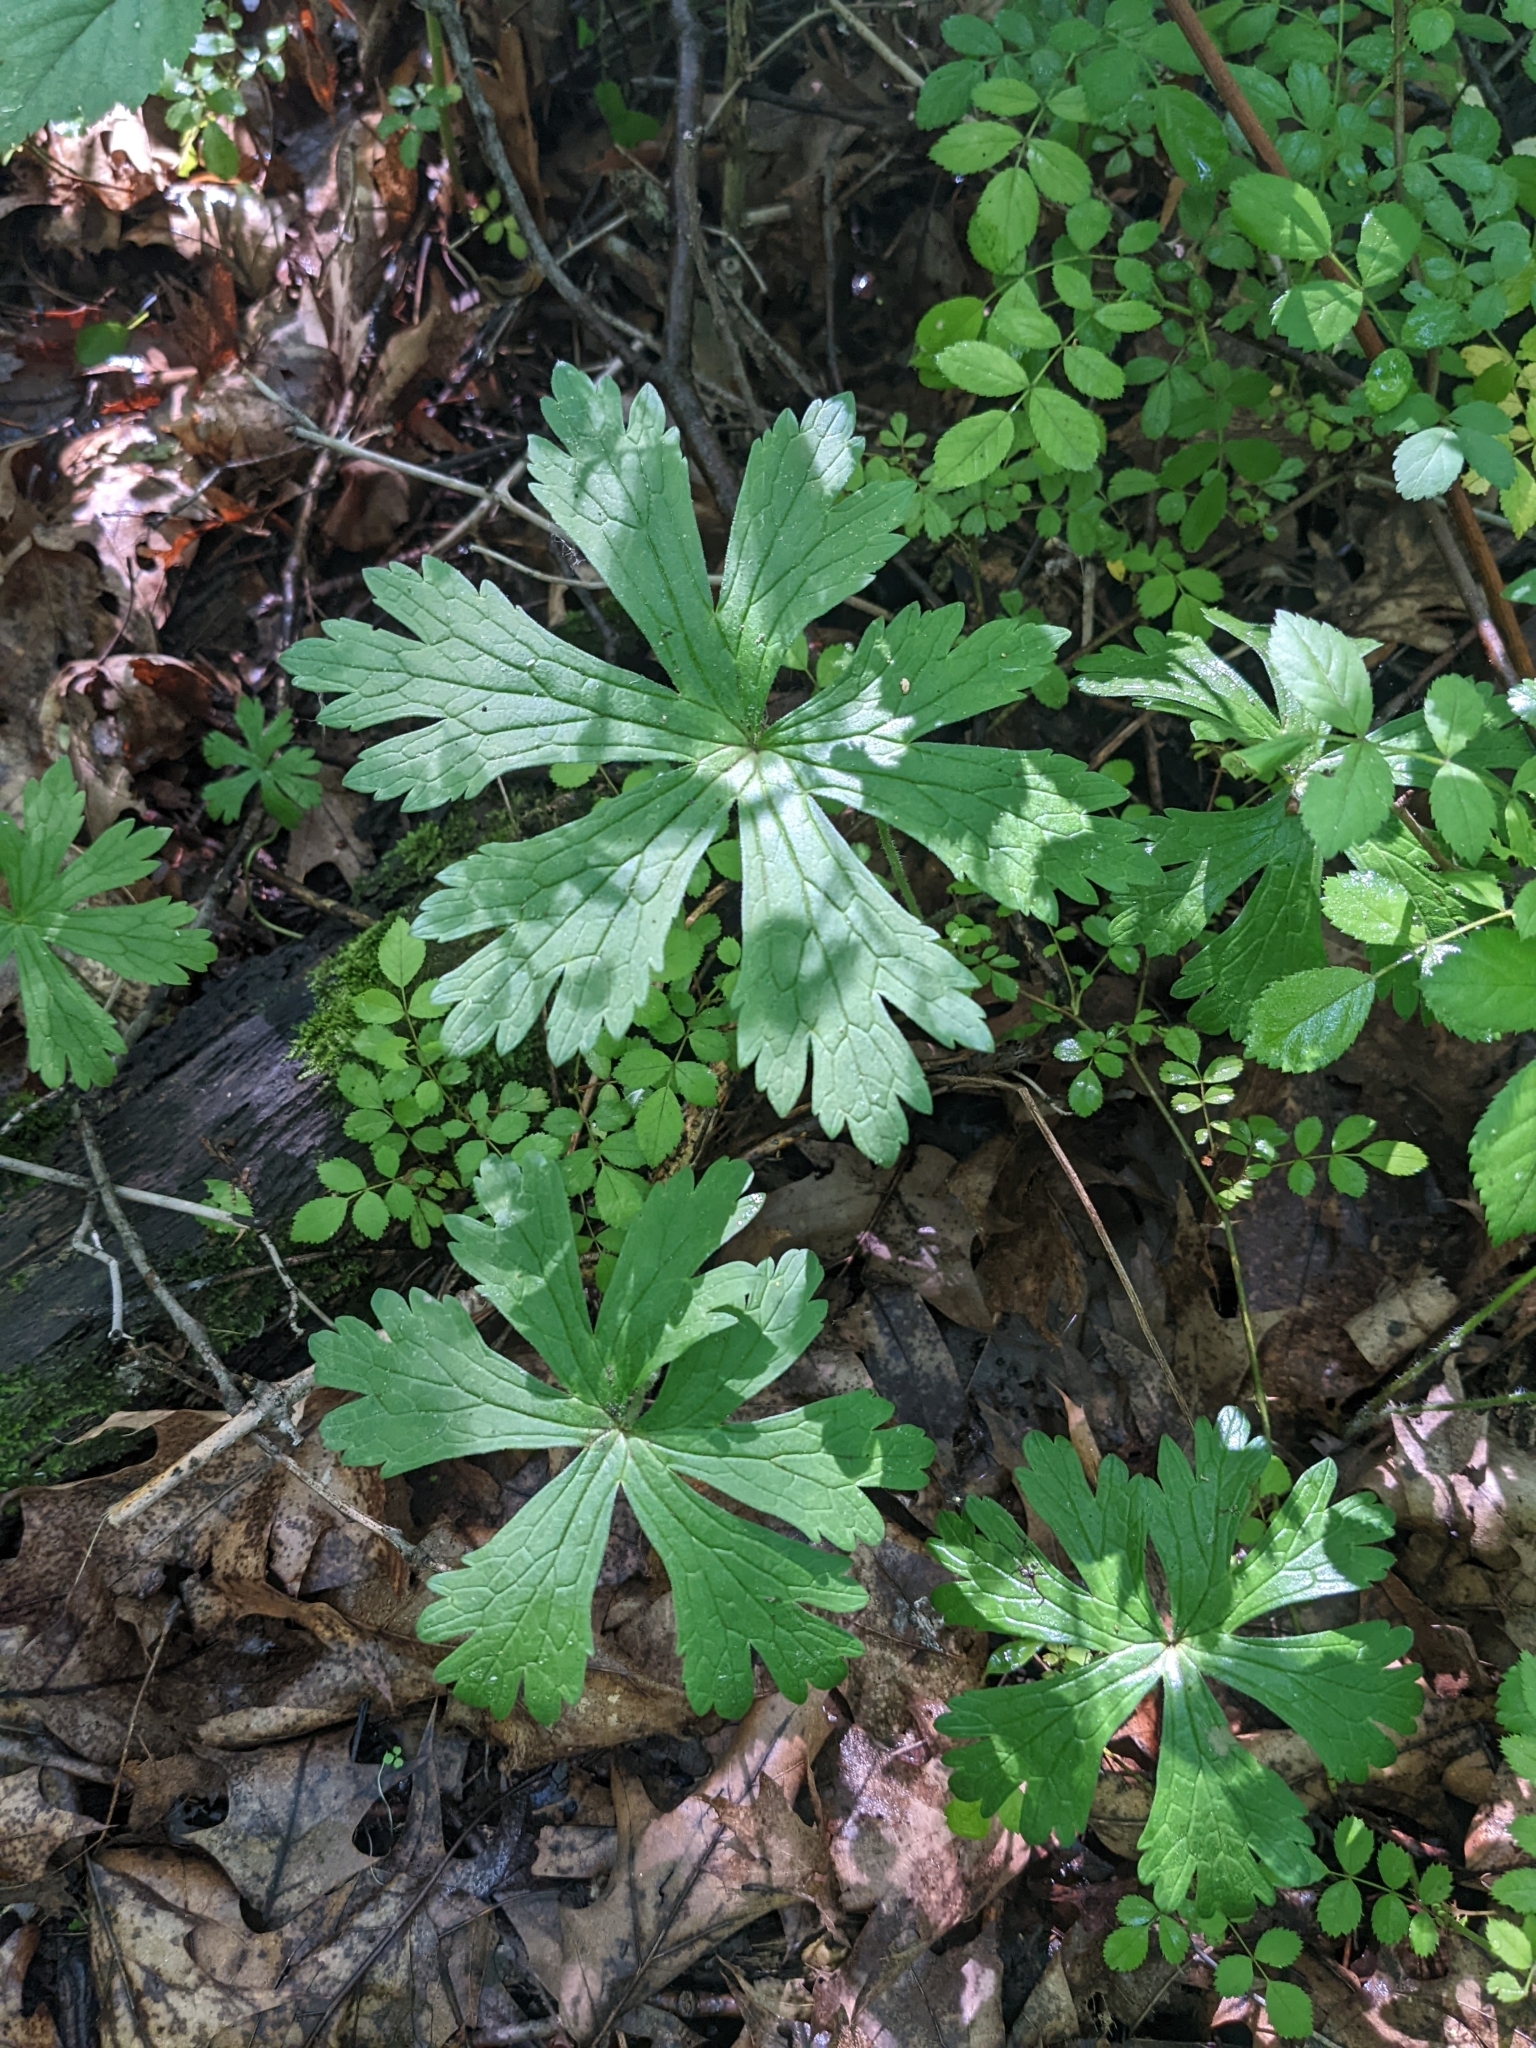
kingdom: Plantae
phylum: Tracheophyta
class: Magnoliopsida
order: Geraniales
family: Geraniaceae
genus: Geranium
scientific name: Geranium maculatum
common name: Spotted geranium
